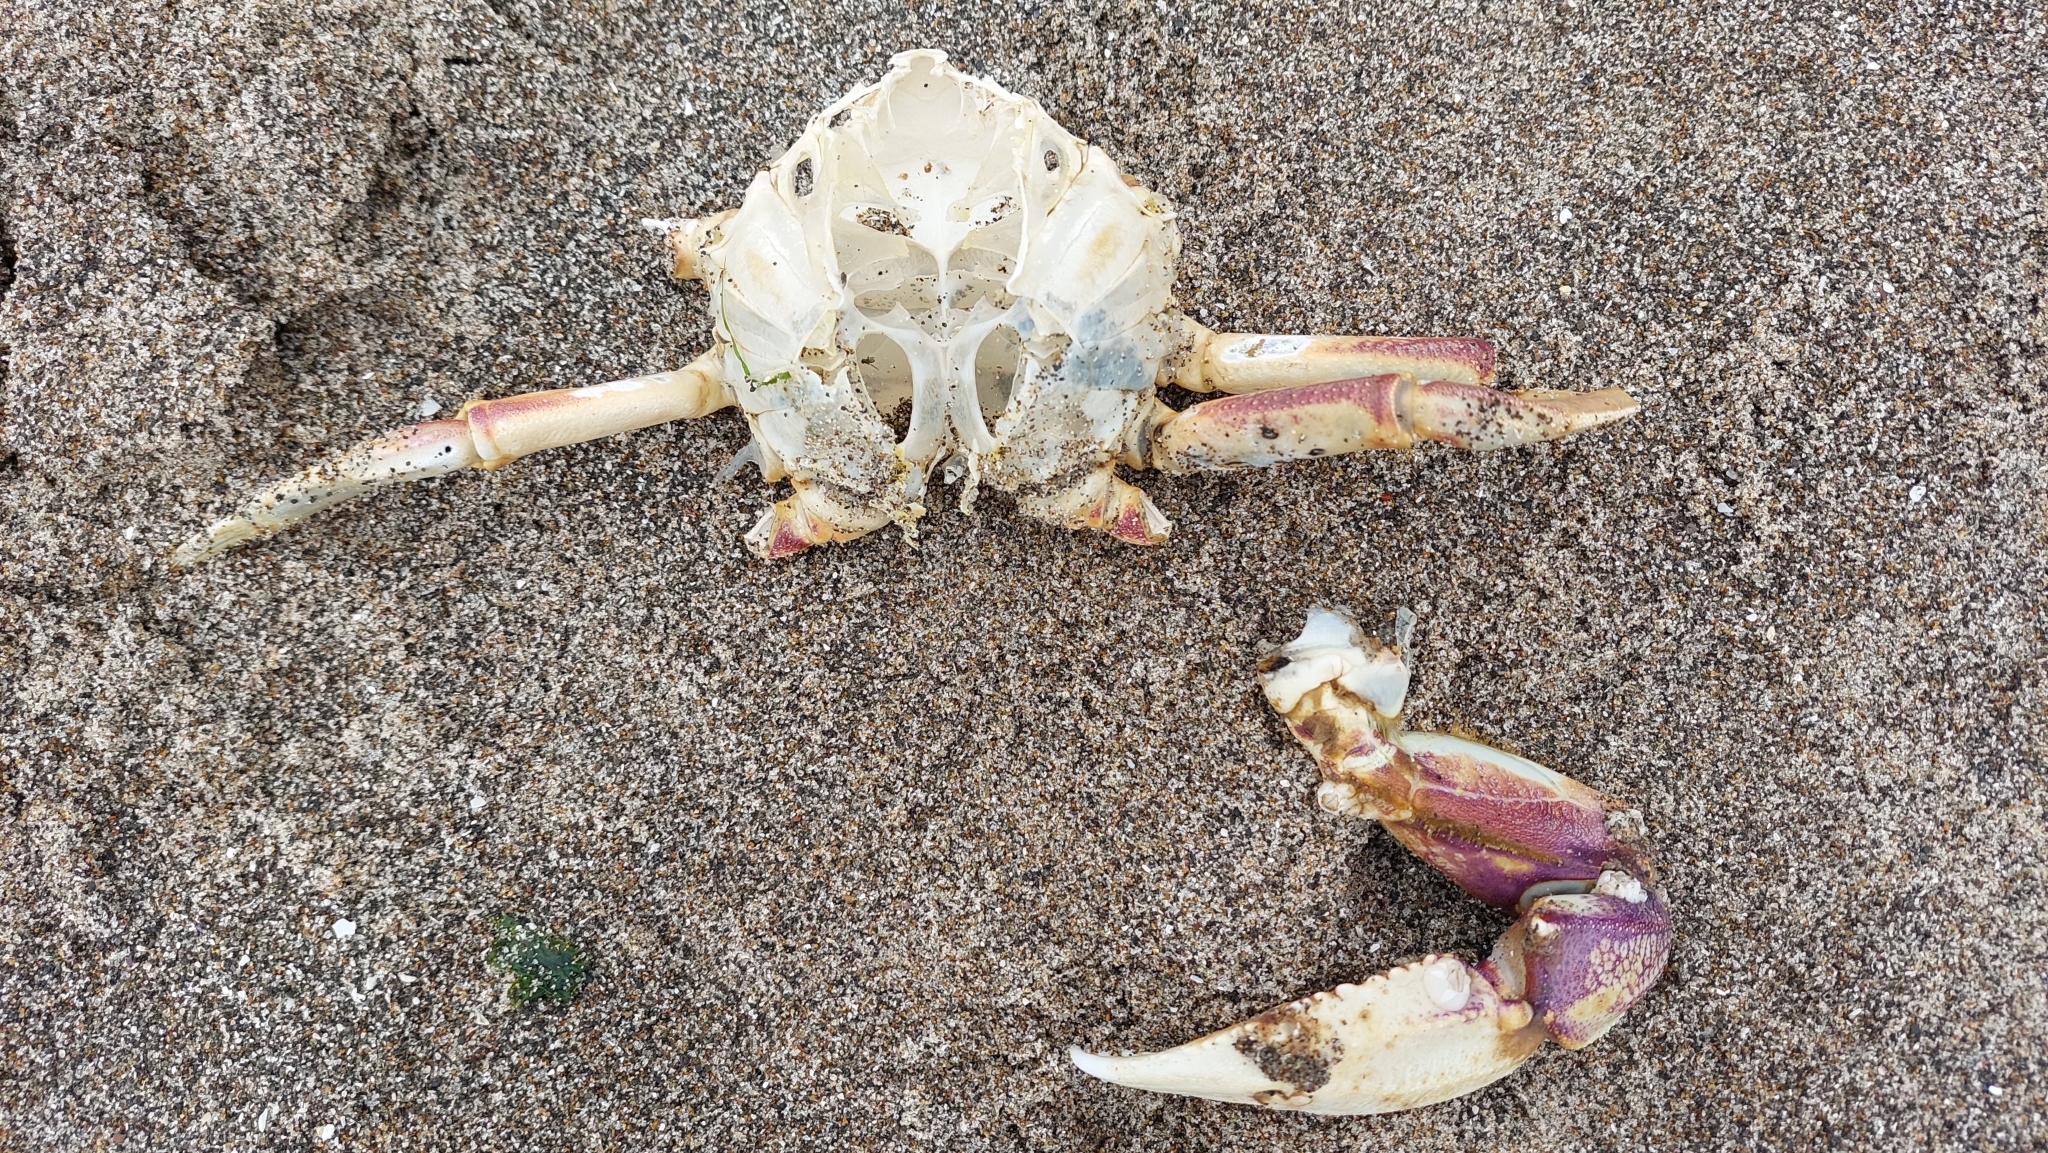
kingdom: Animalia
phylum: Arthropoda
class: Malacostraca
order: Decapoda
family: Cancridae
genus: Metacarcinus
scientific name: Metacarcinus magister
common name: Californian crab
